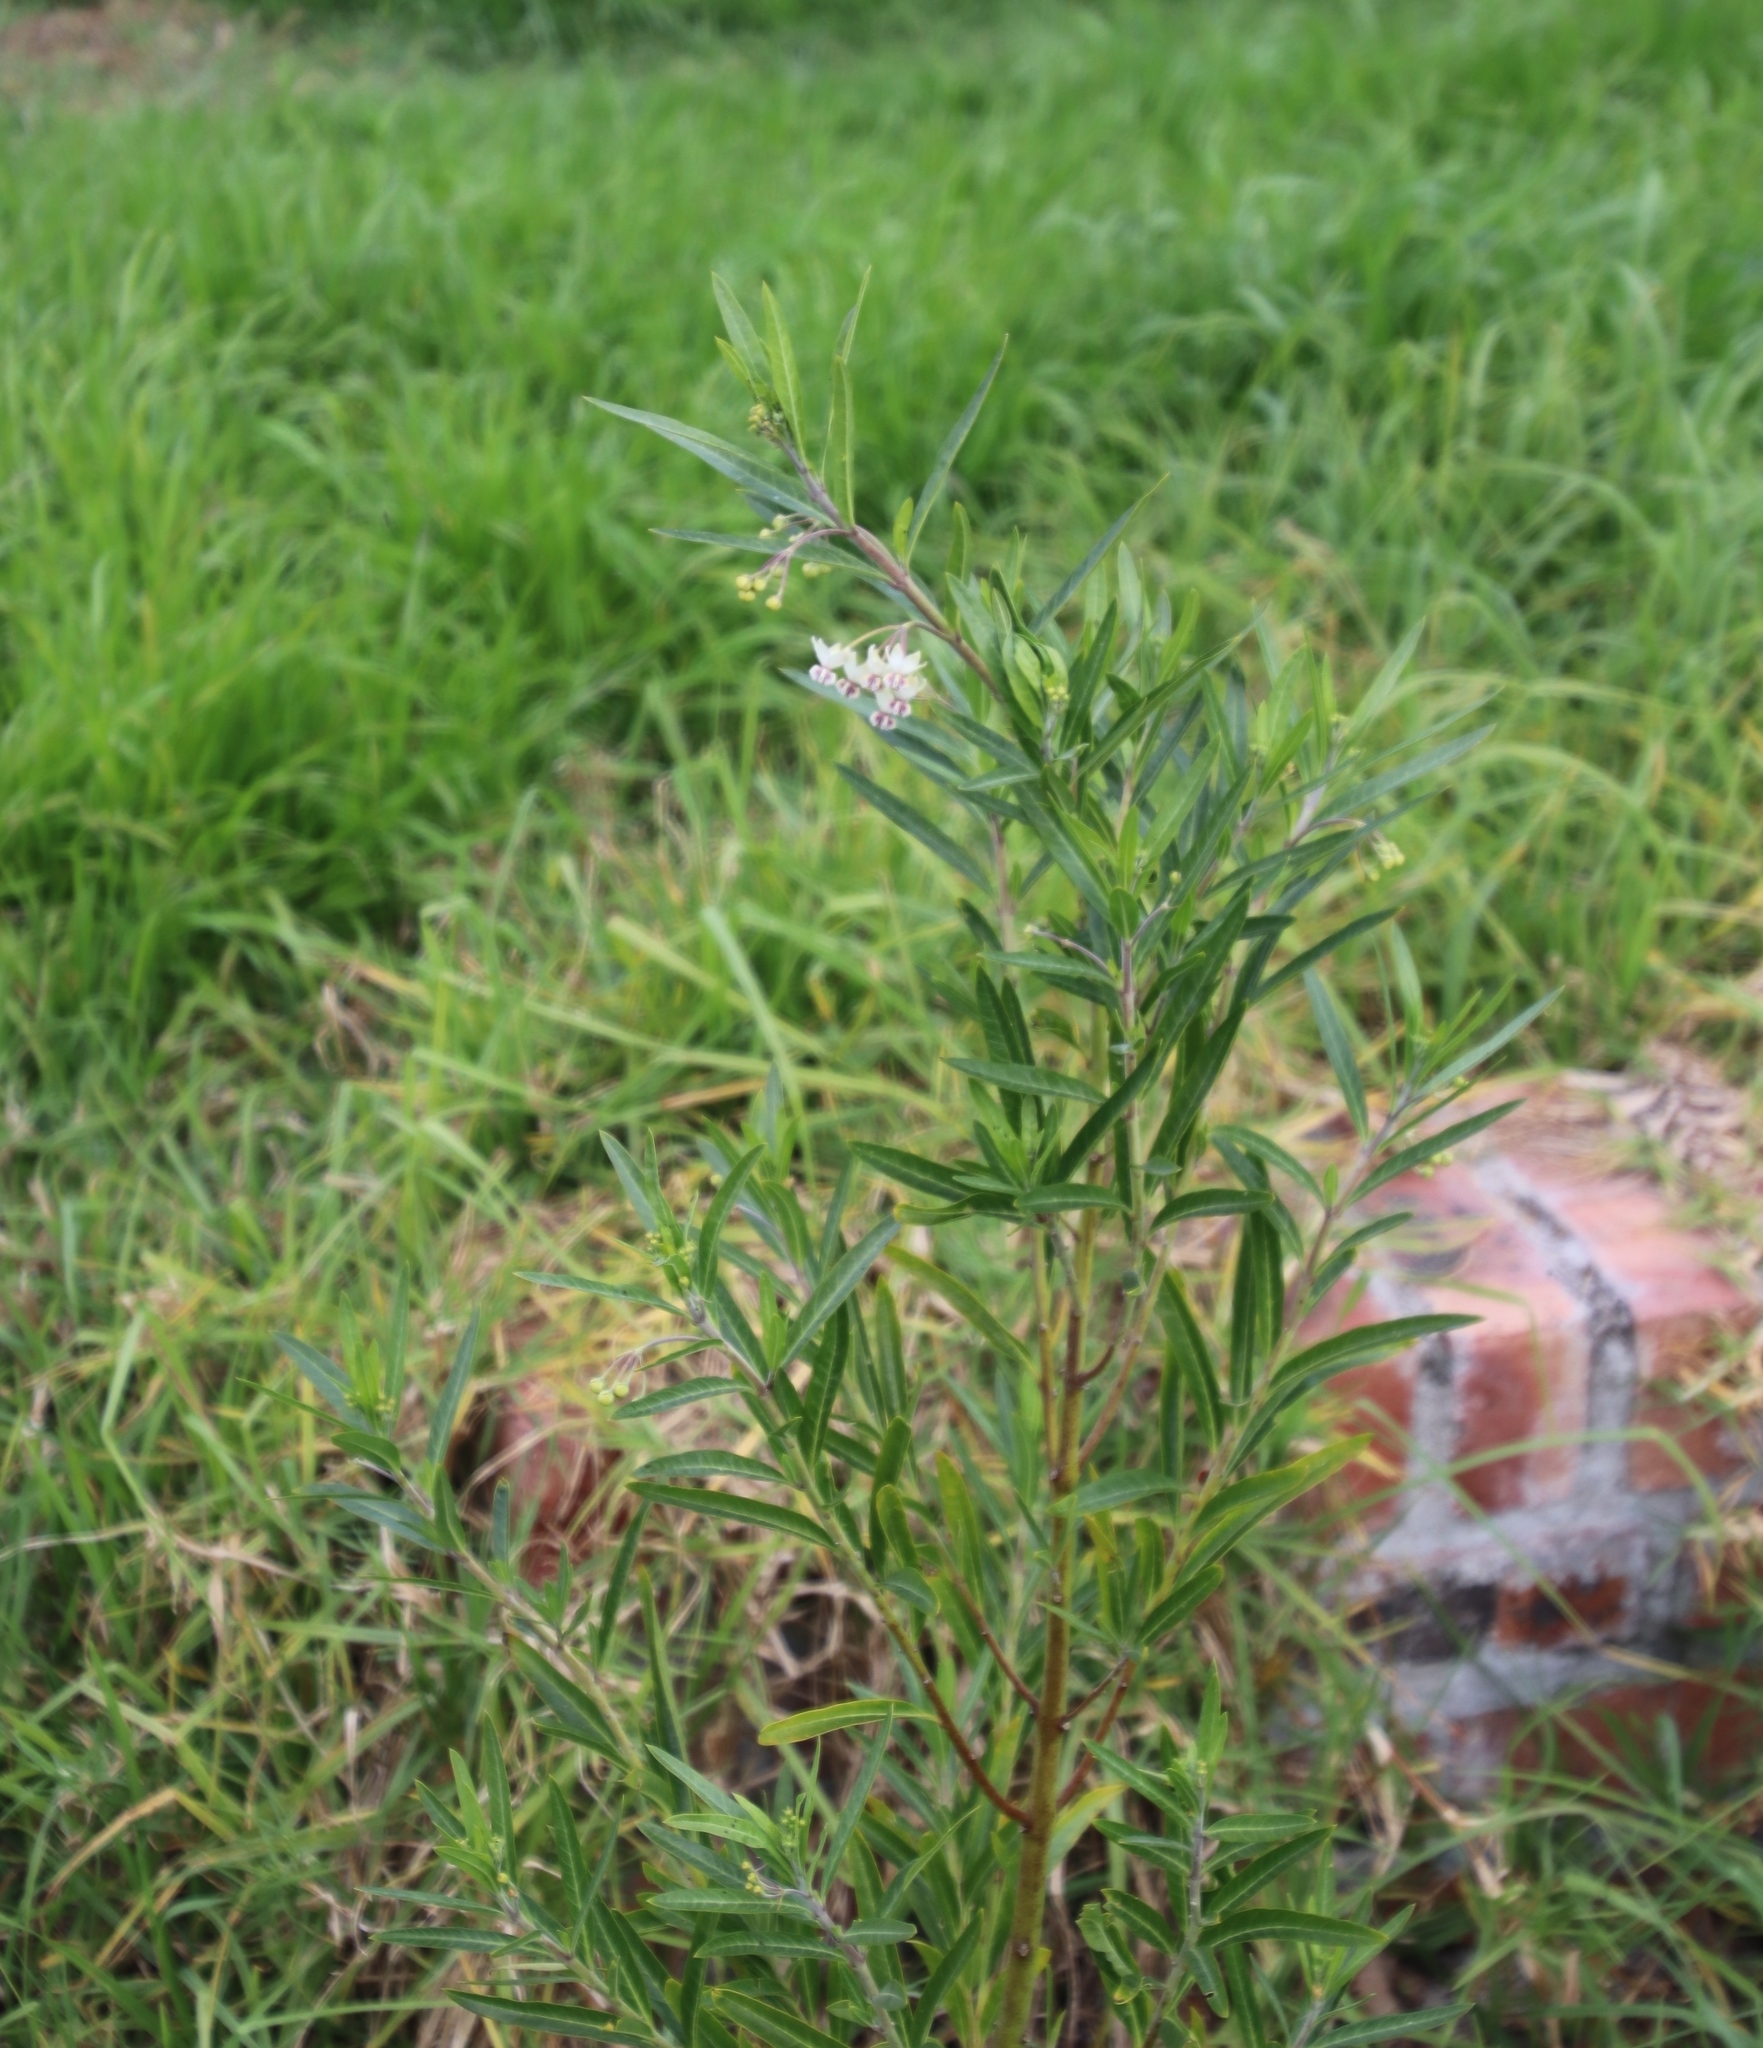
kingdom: Plantae
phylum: Tracheophyta
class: Magnoliopsida
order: Gentianales
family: Apocynaceae
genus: Gomphocarpus
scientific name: Gomphocarpus physocarpus
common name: Balloon cotton bush
